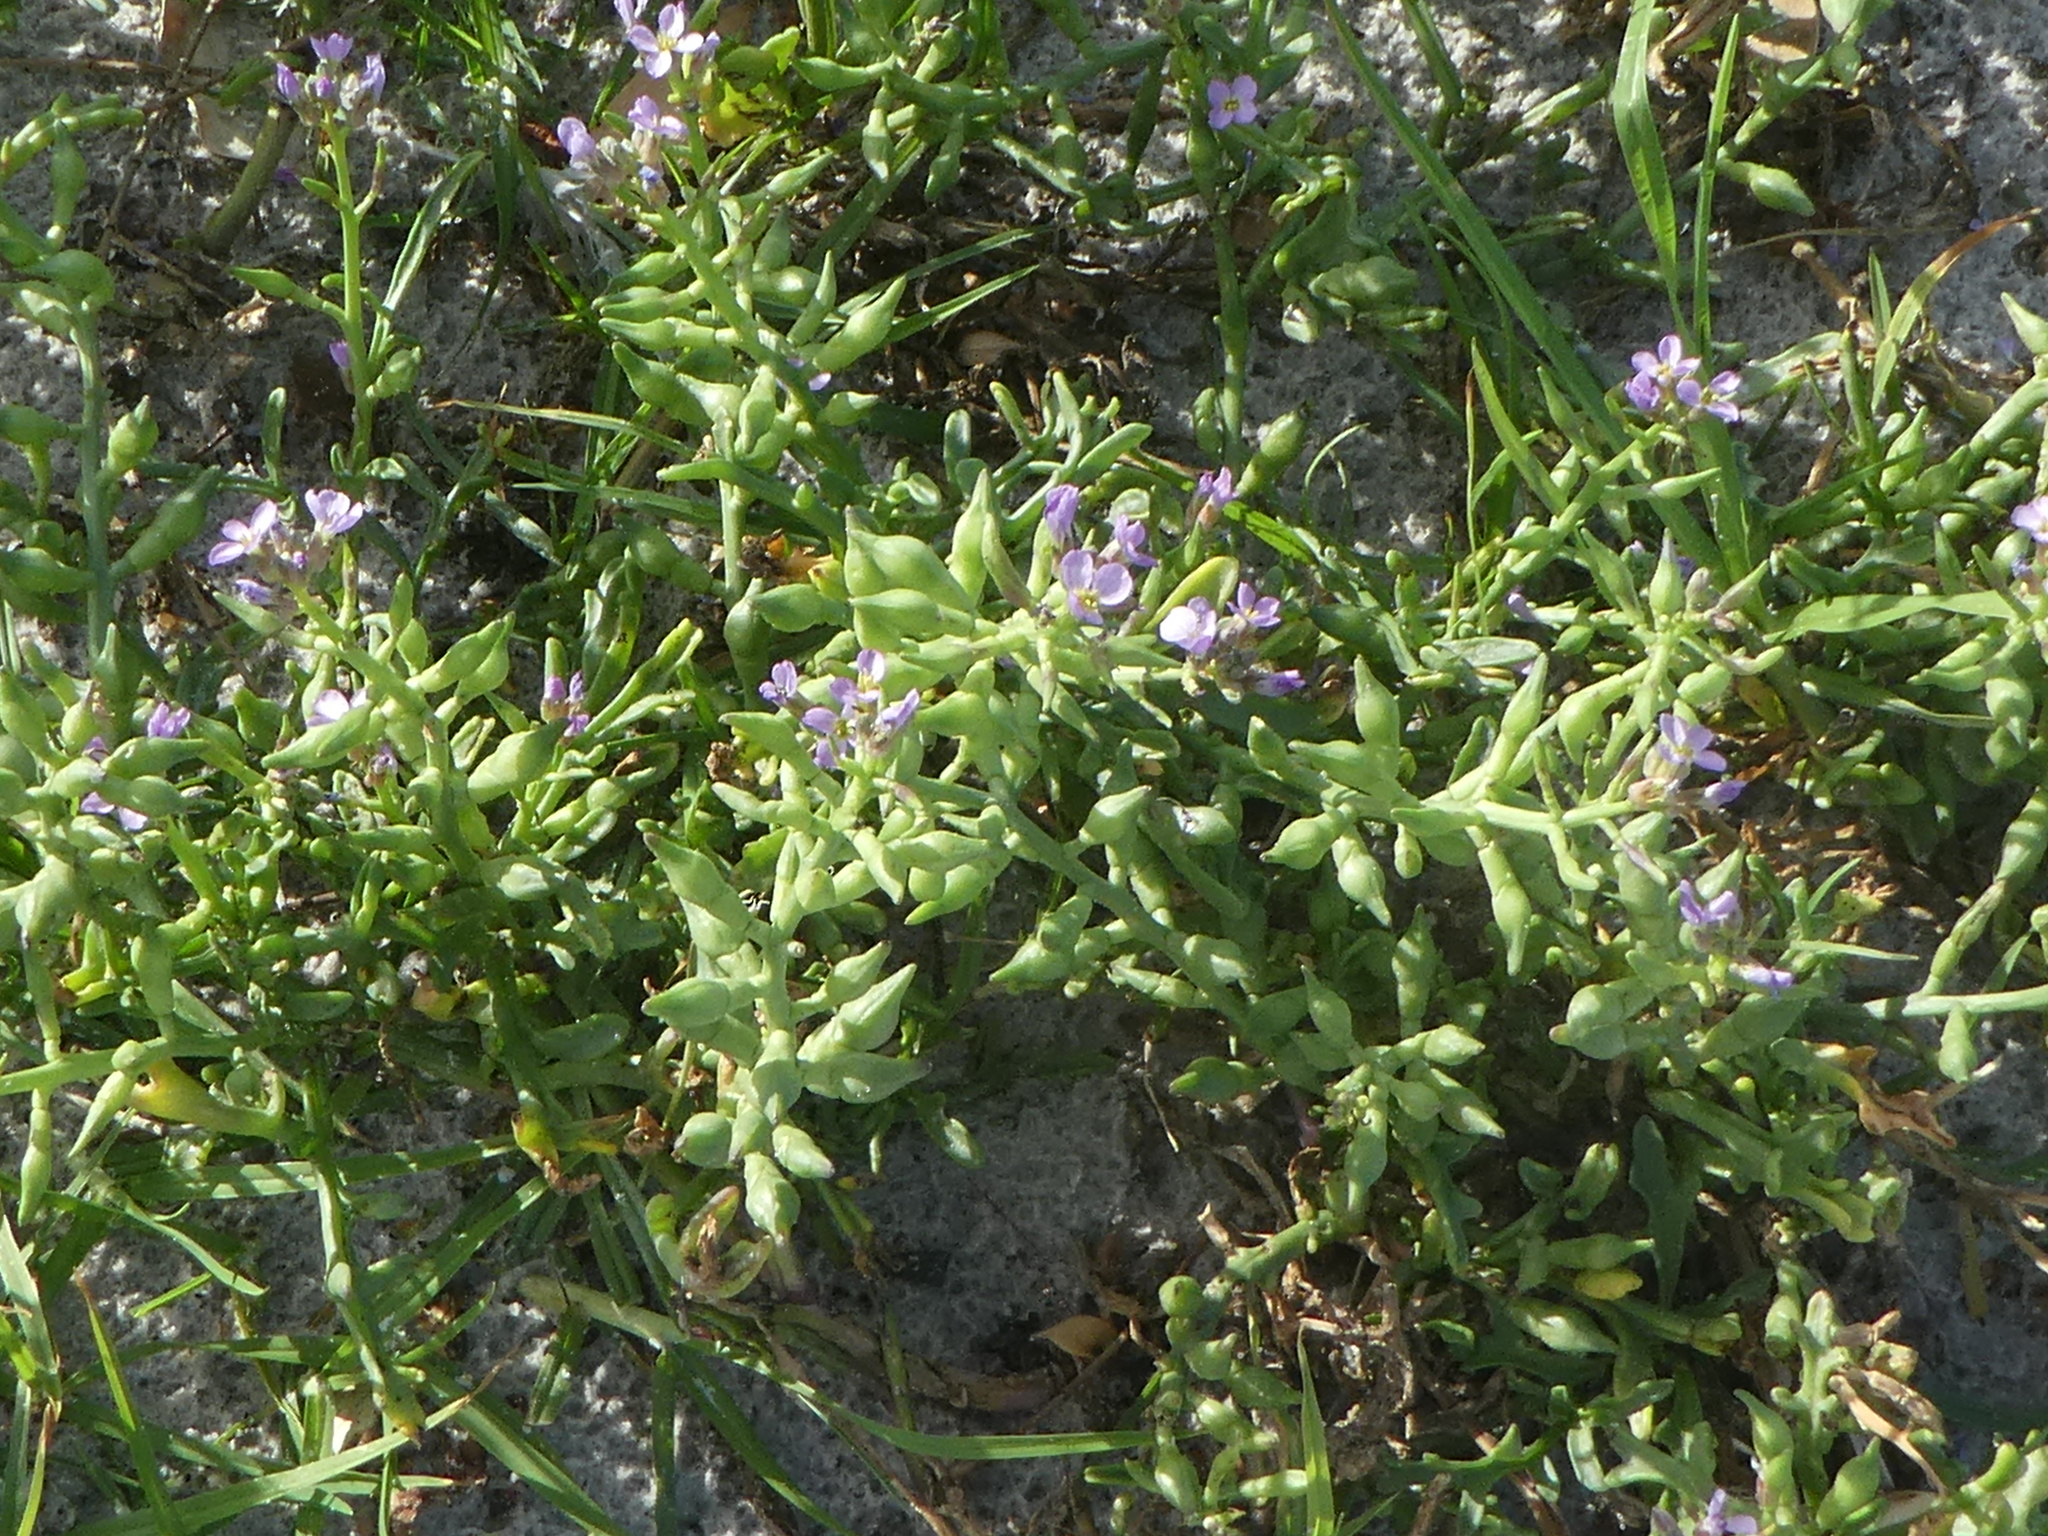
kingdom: Plantae
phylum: Tracheophyta
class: Magnoliopsida
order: Brassicales
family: Brassicaceae
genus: Cakile
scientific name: Cakile maritima
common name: Sea rocket
